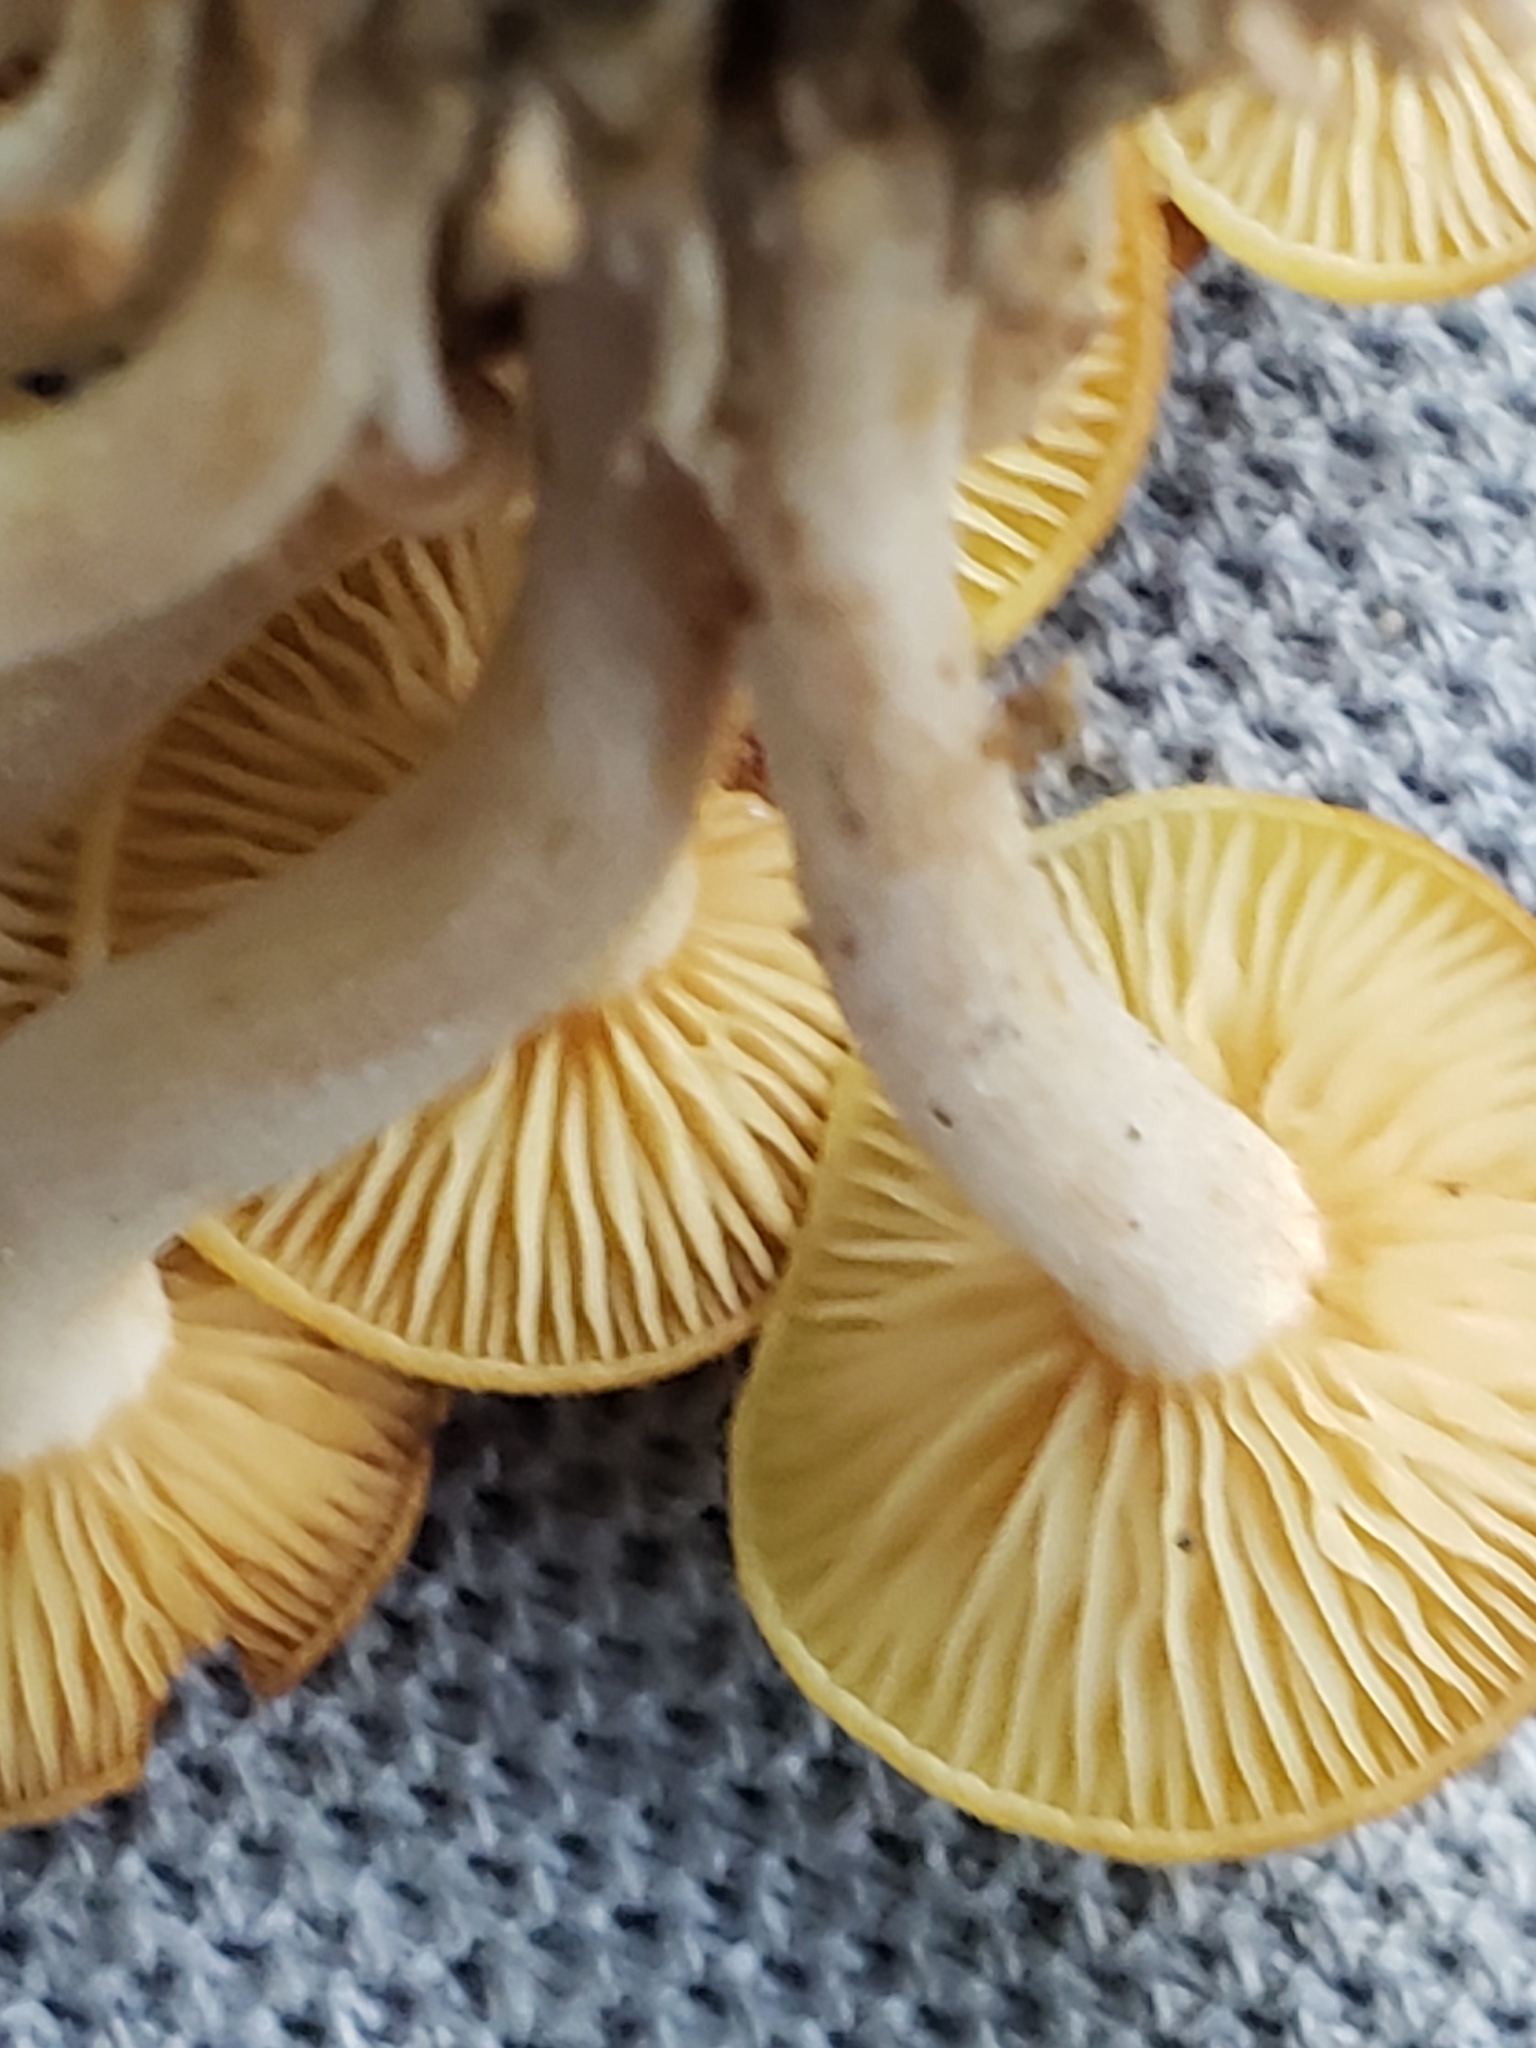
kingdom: Fungi
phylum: Basidiomycota
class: Agaricomycetes
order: Agaricales
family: Physalacriaceae
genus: Desarmillaria
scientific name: Desarmillaria caespitosa
